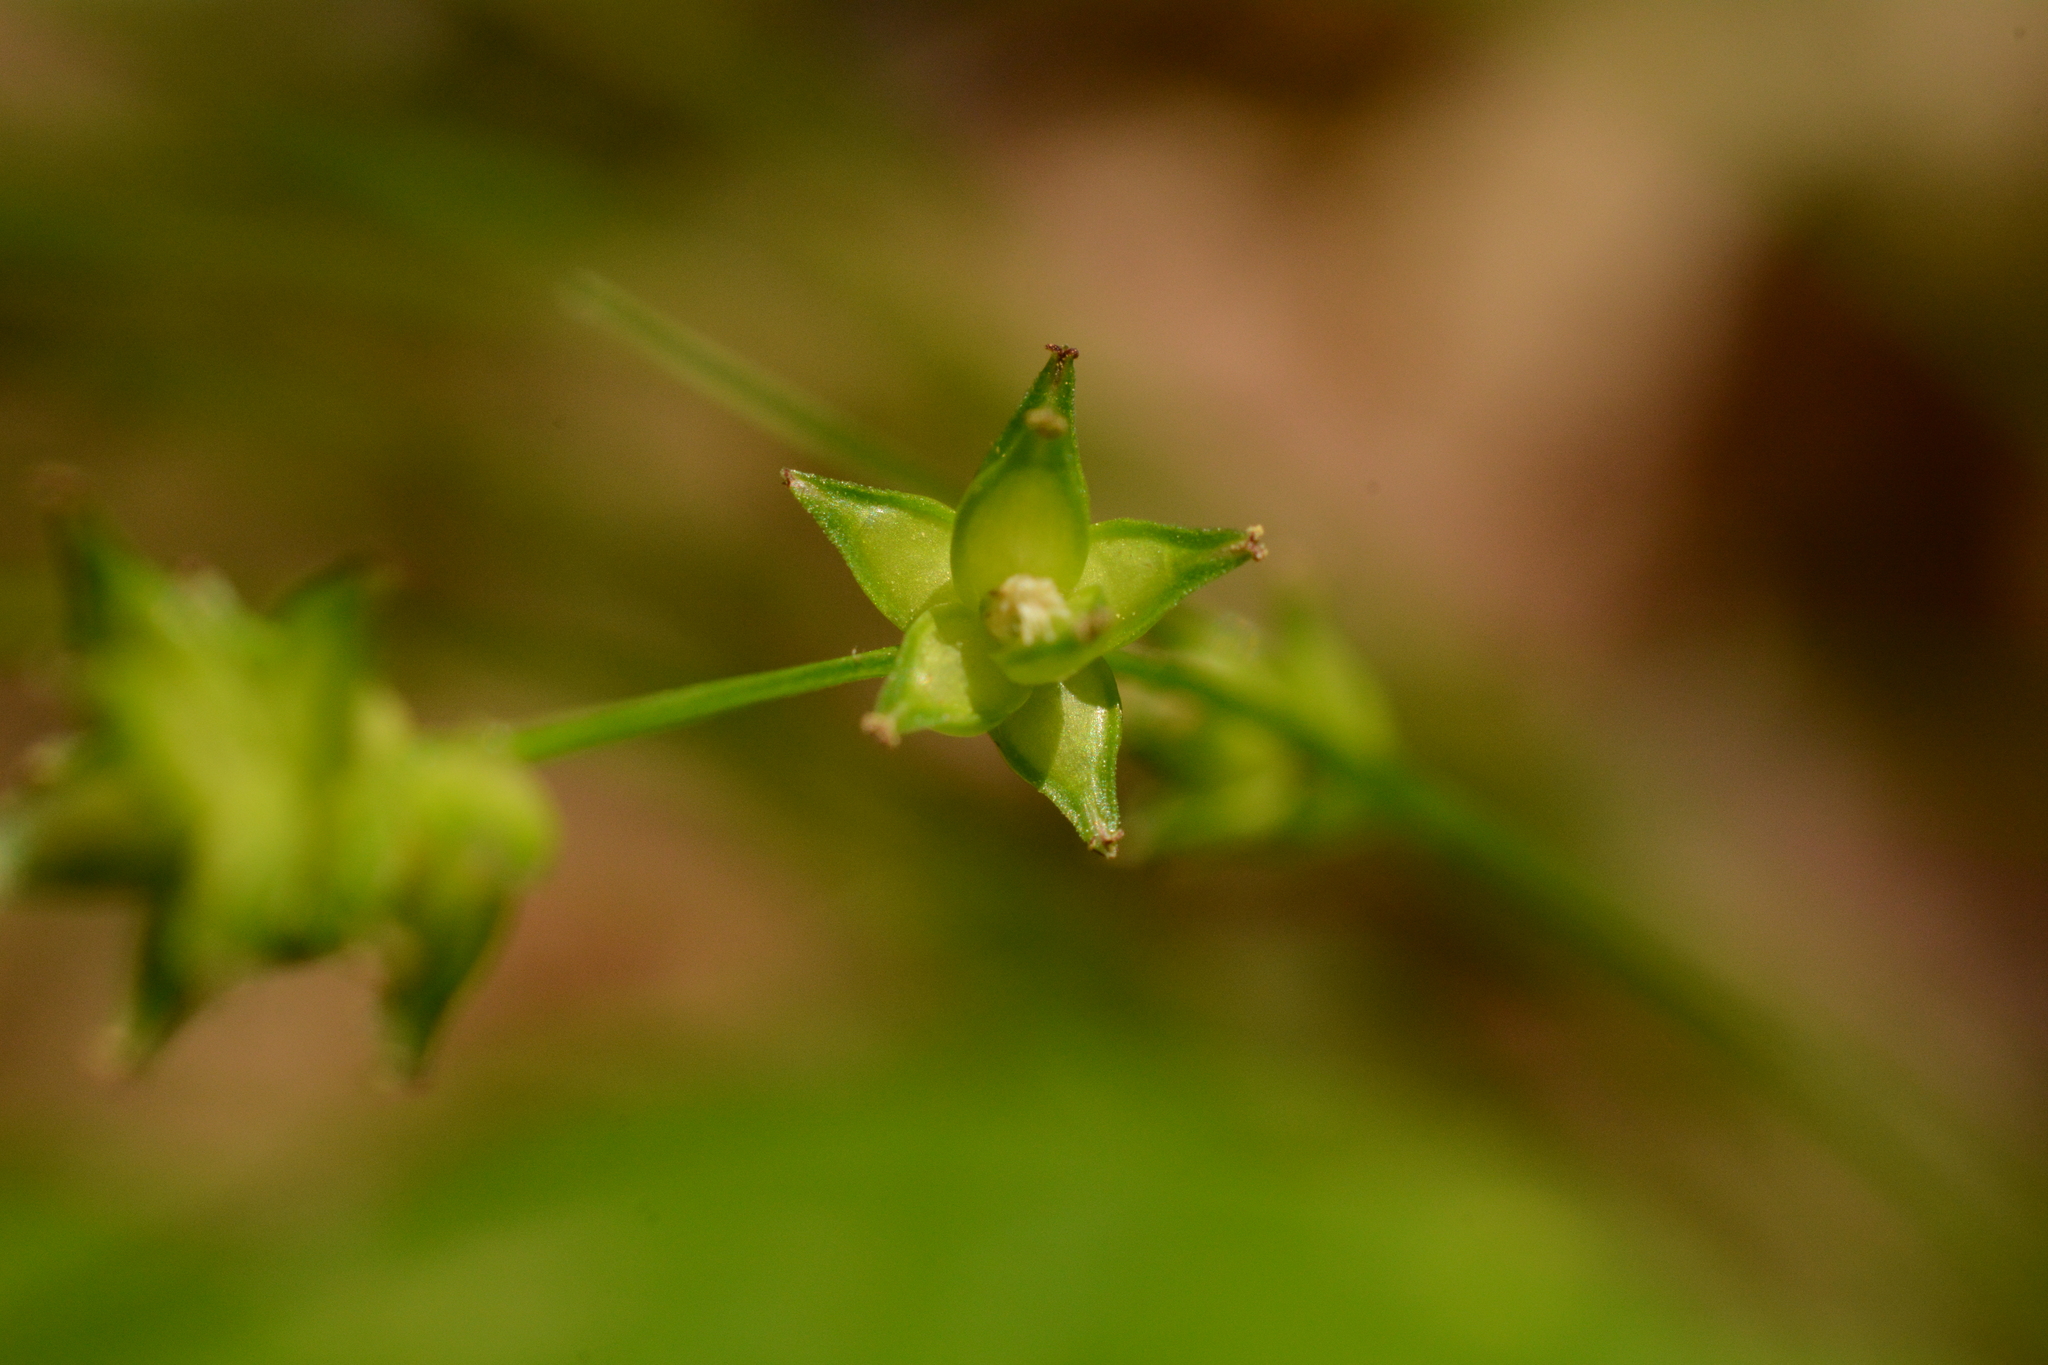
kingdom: Plantae
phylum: Tracheophyta
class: Magnoliopsida
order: Fagales
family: Fagaceae
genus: Quercus
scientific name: Quercus alba
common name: White oak
